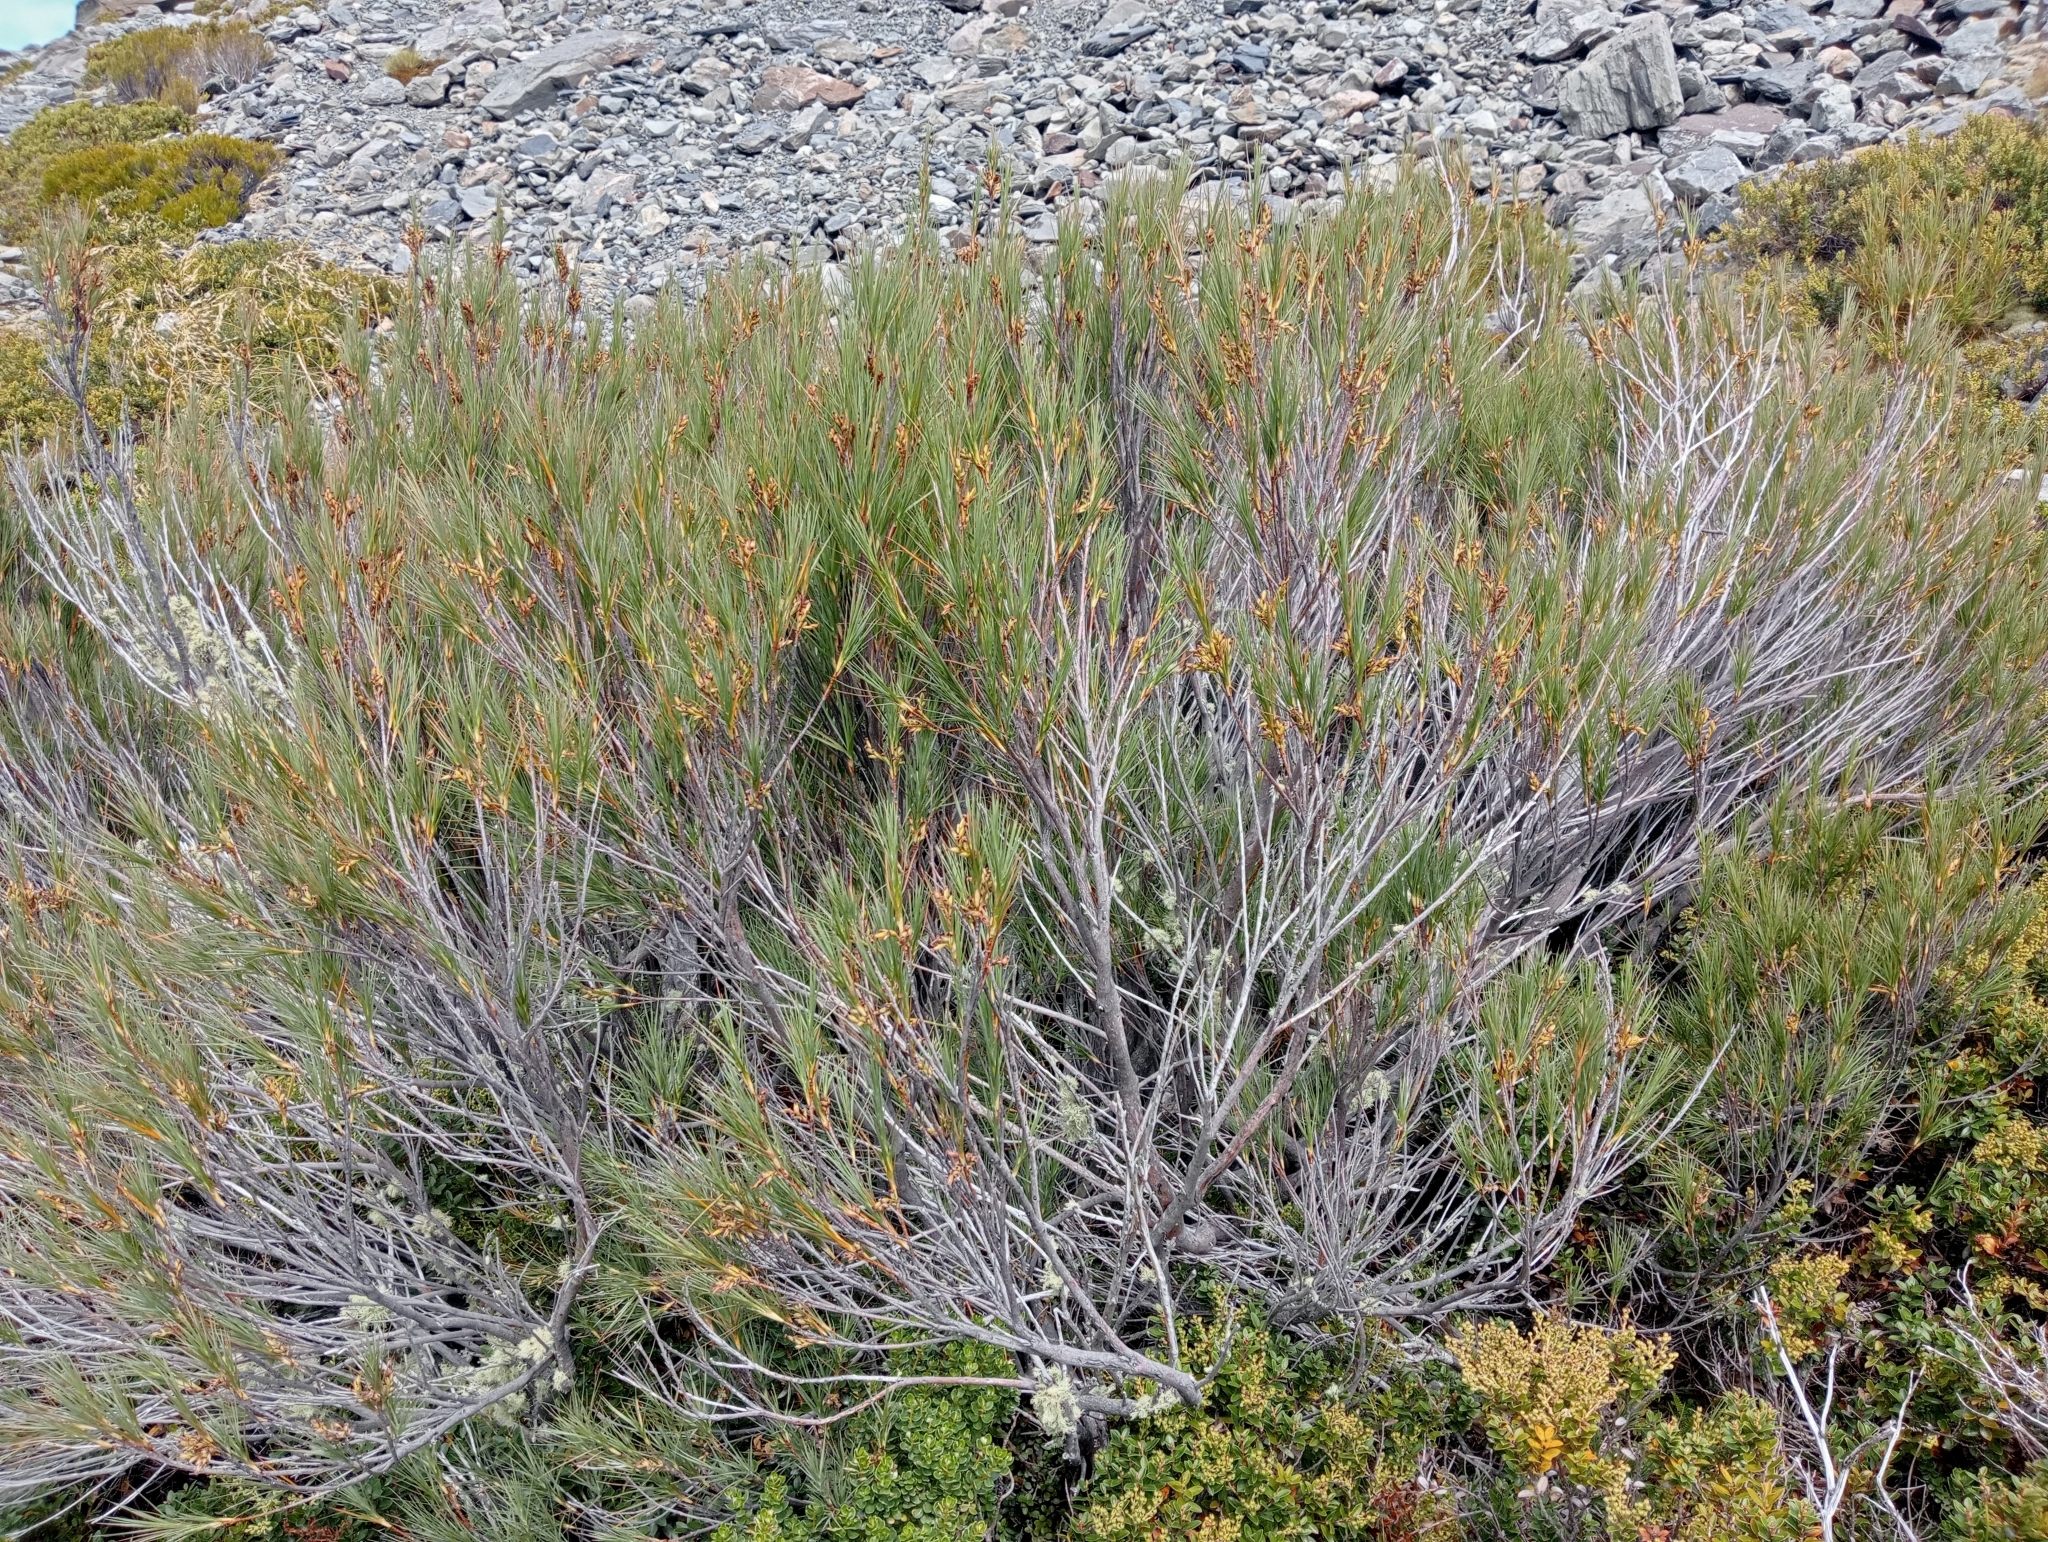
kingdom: Plantae
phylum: Tracheophyta
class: Magnoliopsida
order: Ericales
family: Ericaceae
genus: Dracophyllum
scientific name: Dracophyllum longifolium
